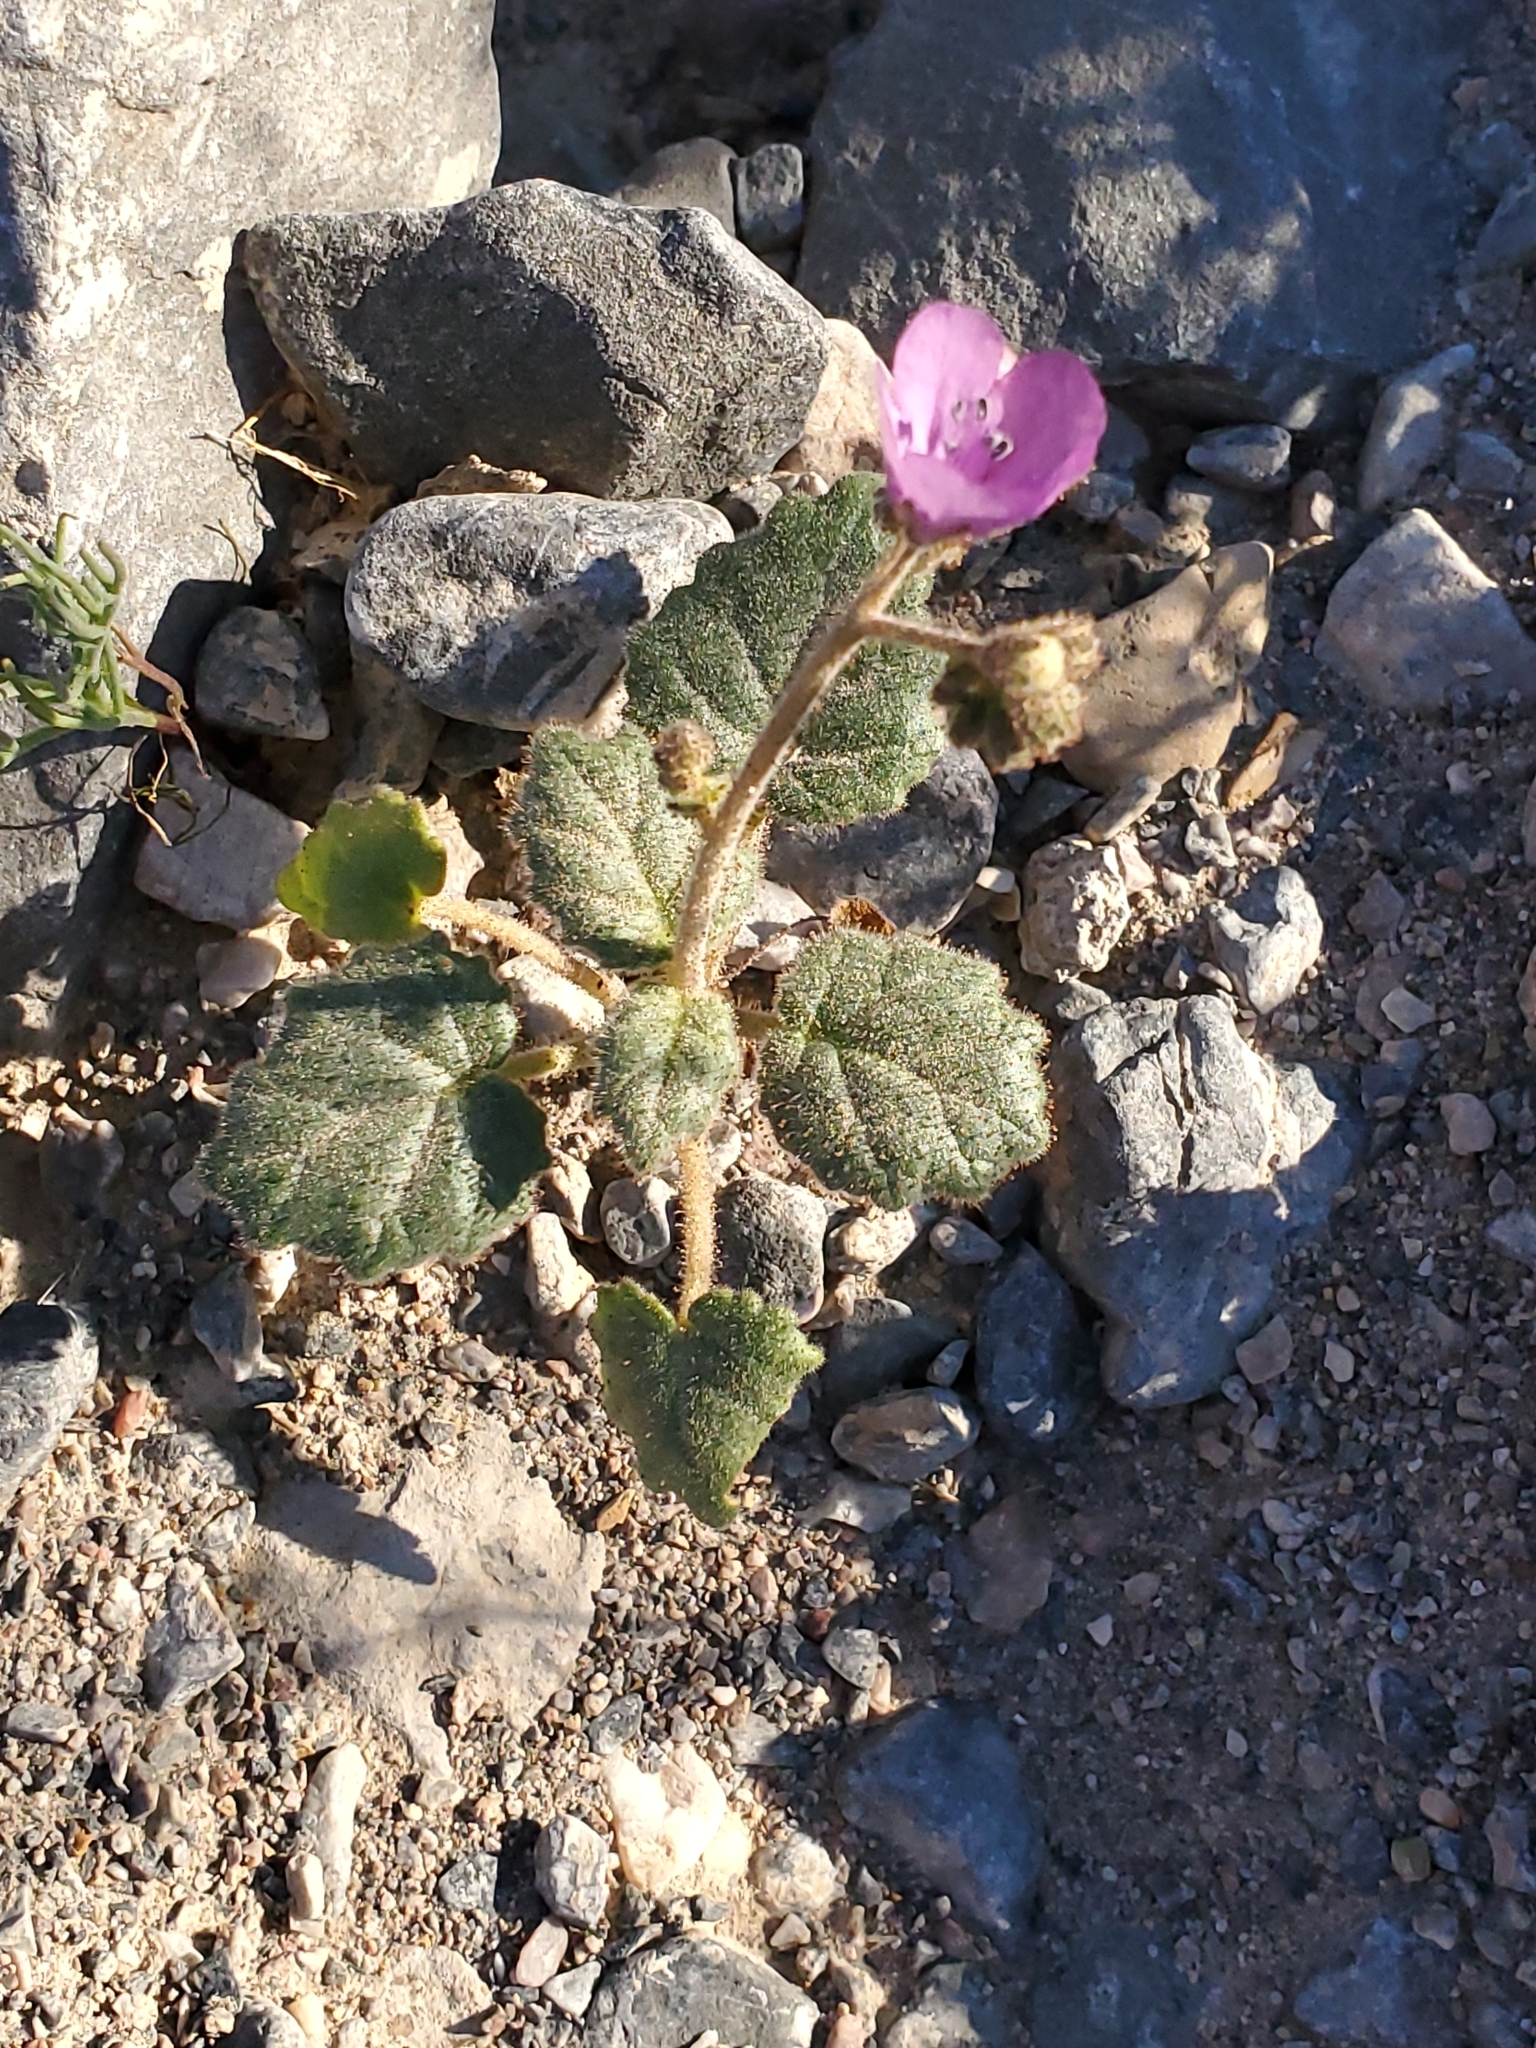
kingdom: Plantae
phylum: Tracheophyta
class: Magnoliopsida
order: Boraginales
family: Hydrophyllaceae
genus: Phacelia
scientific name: Phacelia calthifolia
